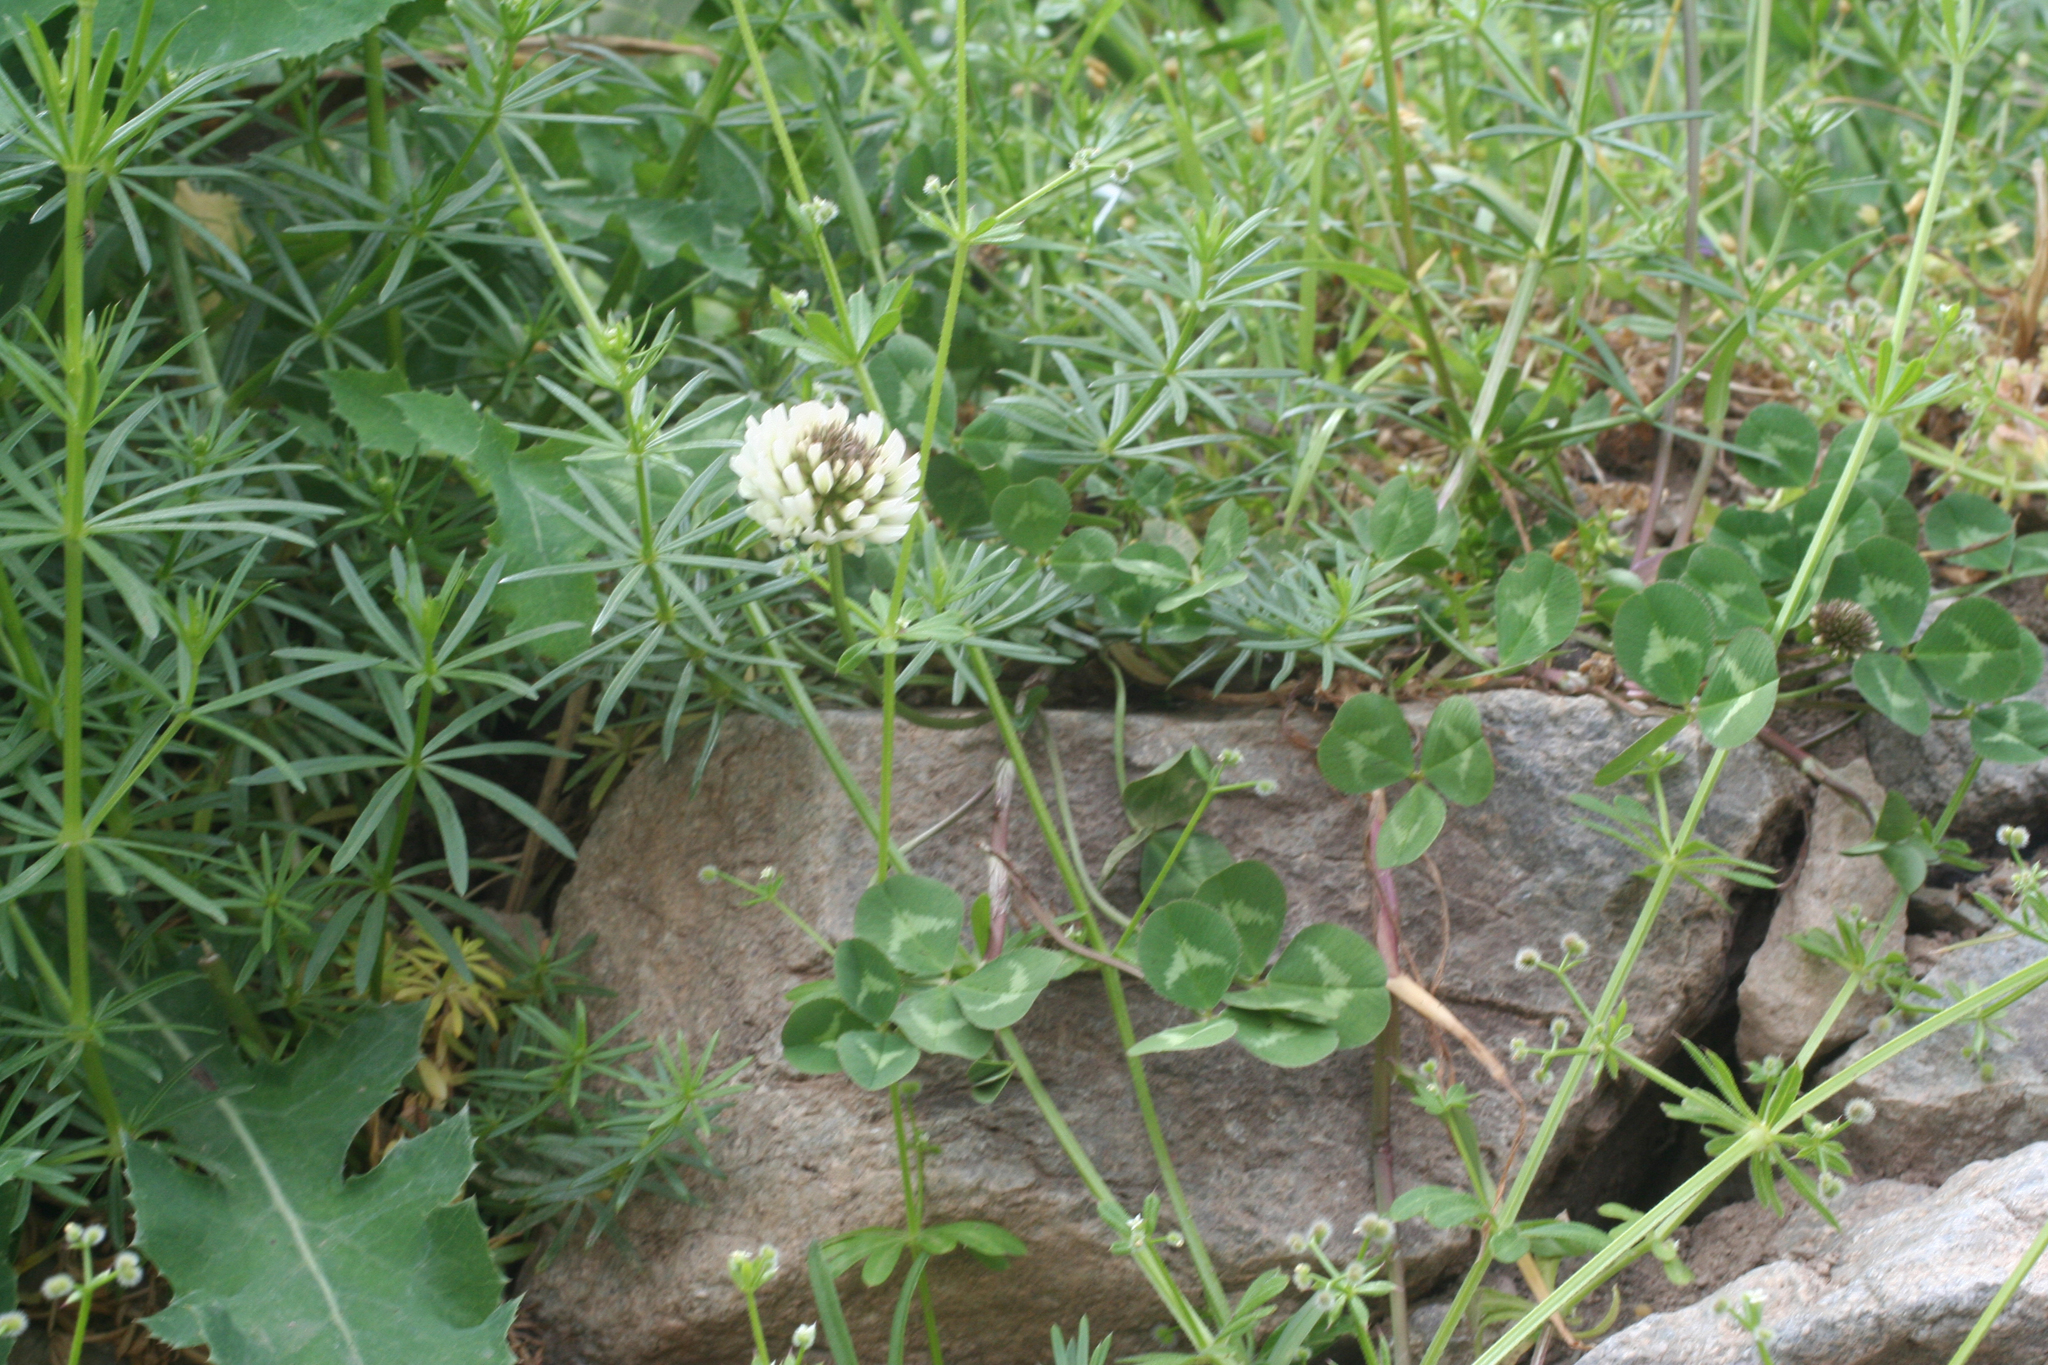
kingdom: Plantae
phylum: Tracheophyta
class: Magnoliopsida
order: Fabales
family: Fabaceae
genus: Trifolium
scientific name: Trifolium repens
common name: White clover
